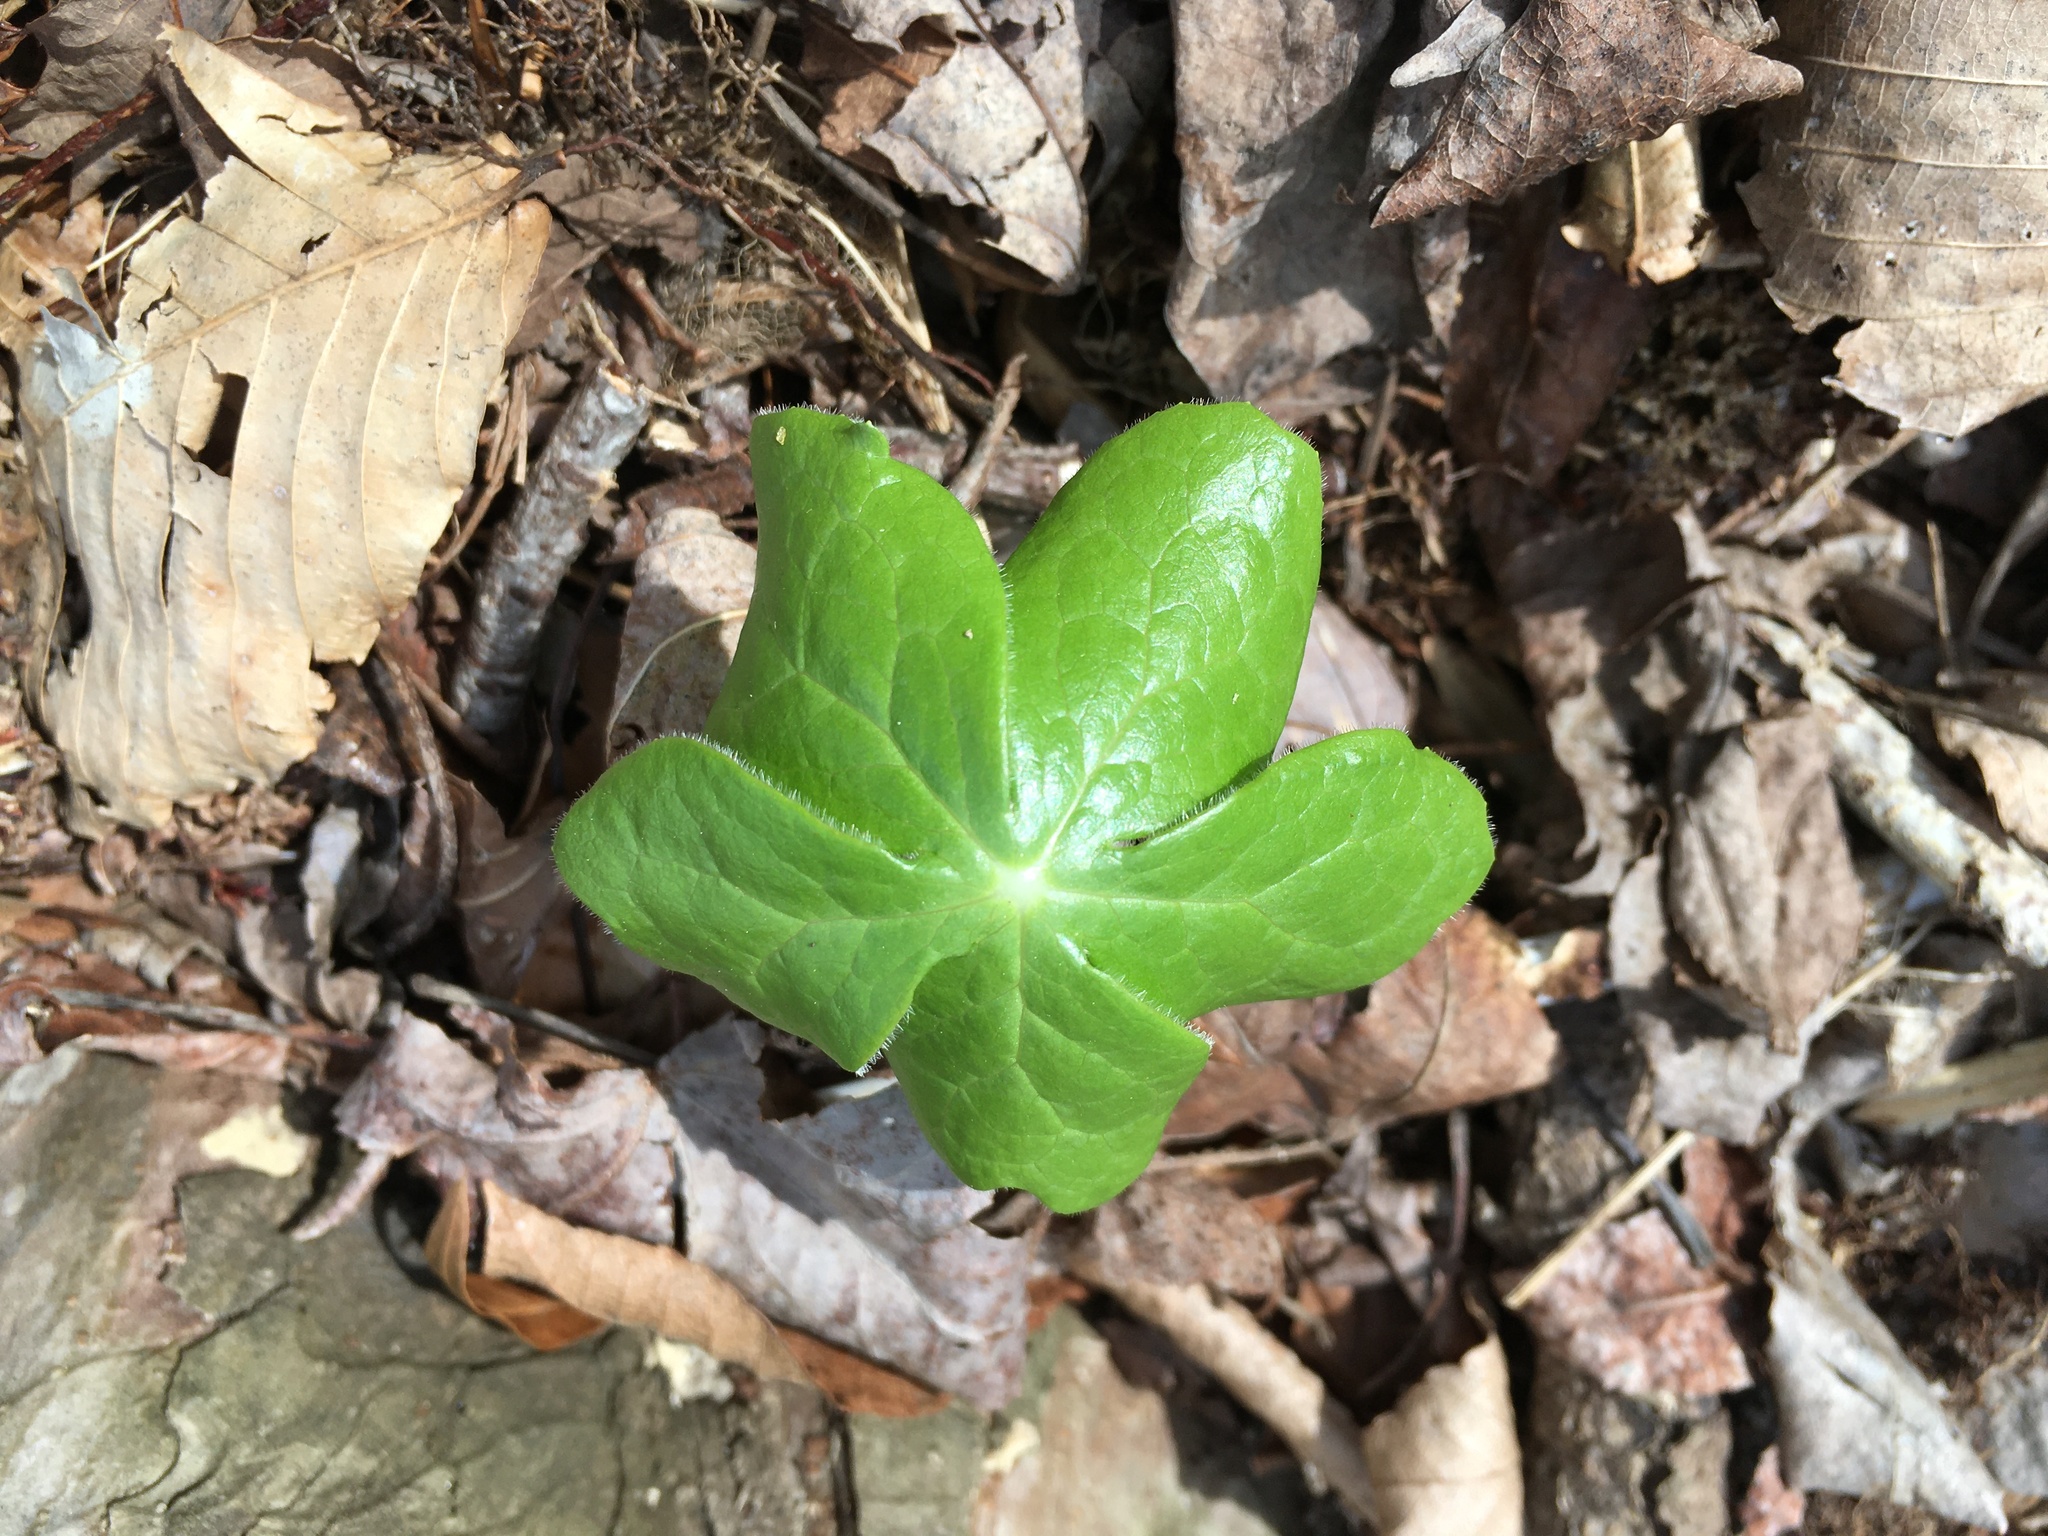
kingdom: Plantae
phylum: Tracheophyta
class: Magnoliopsida
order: Ranunculales
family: Berberidaceae
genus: Podophyllum
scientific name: Podophyllum peltatum
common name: Wild mandrake
